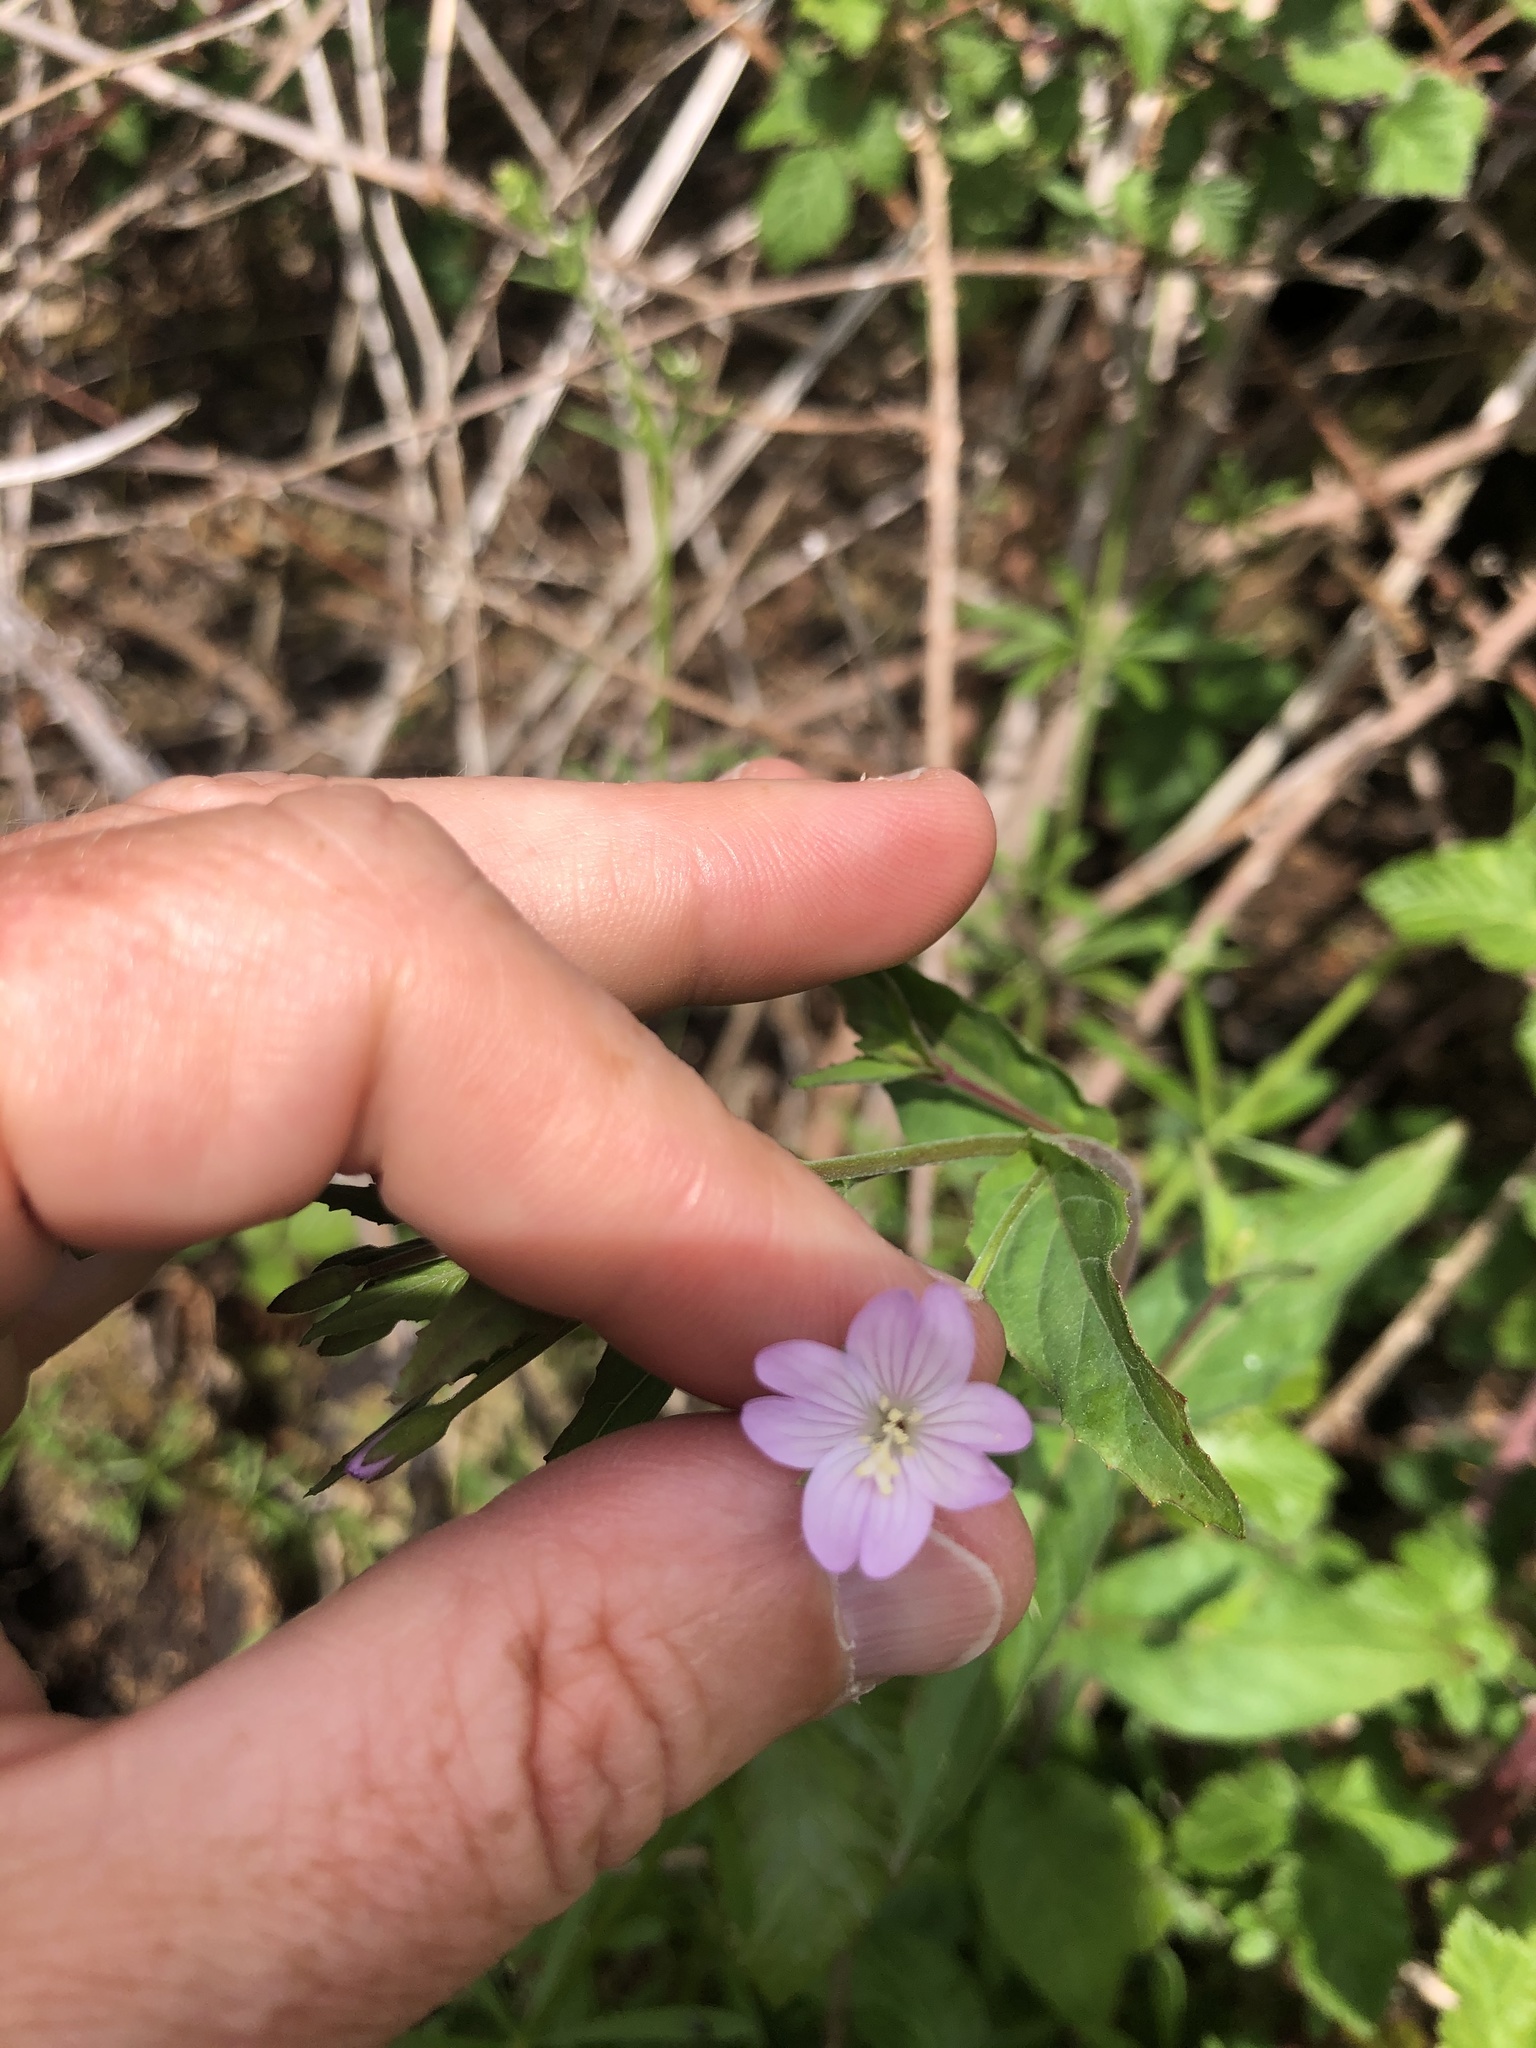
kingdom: Plantae
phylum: Tracheophyta
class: Magnoliopsida
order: Myrtales
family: Onagraceae
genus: Epilobium
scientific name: Epilobium montanum
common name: Broad-leaved willowherb
